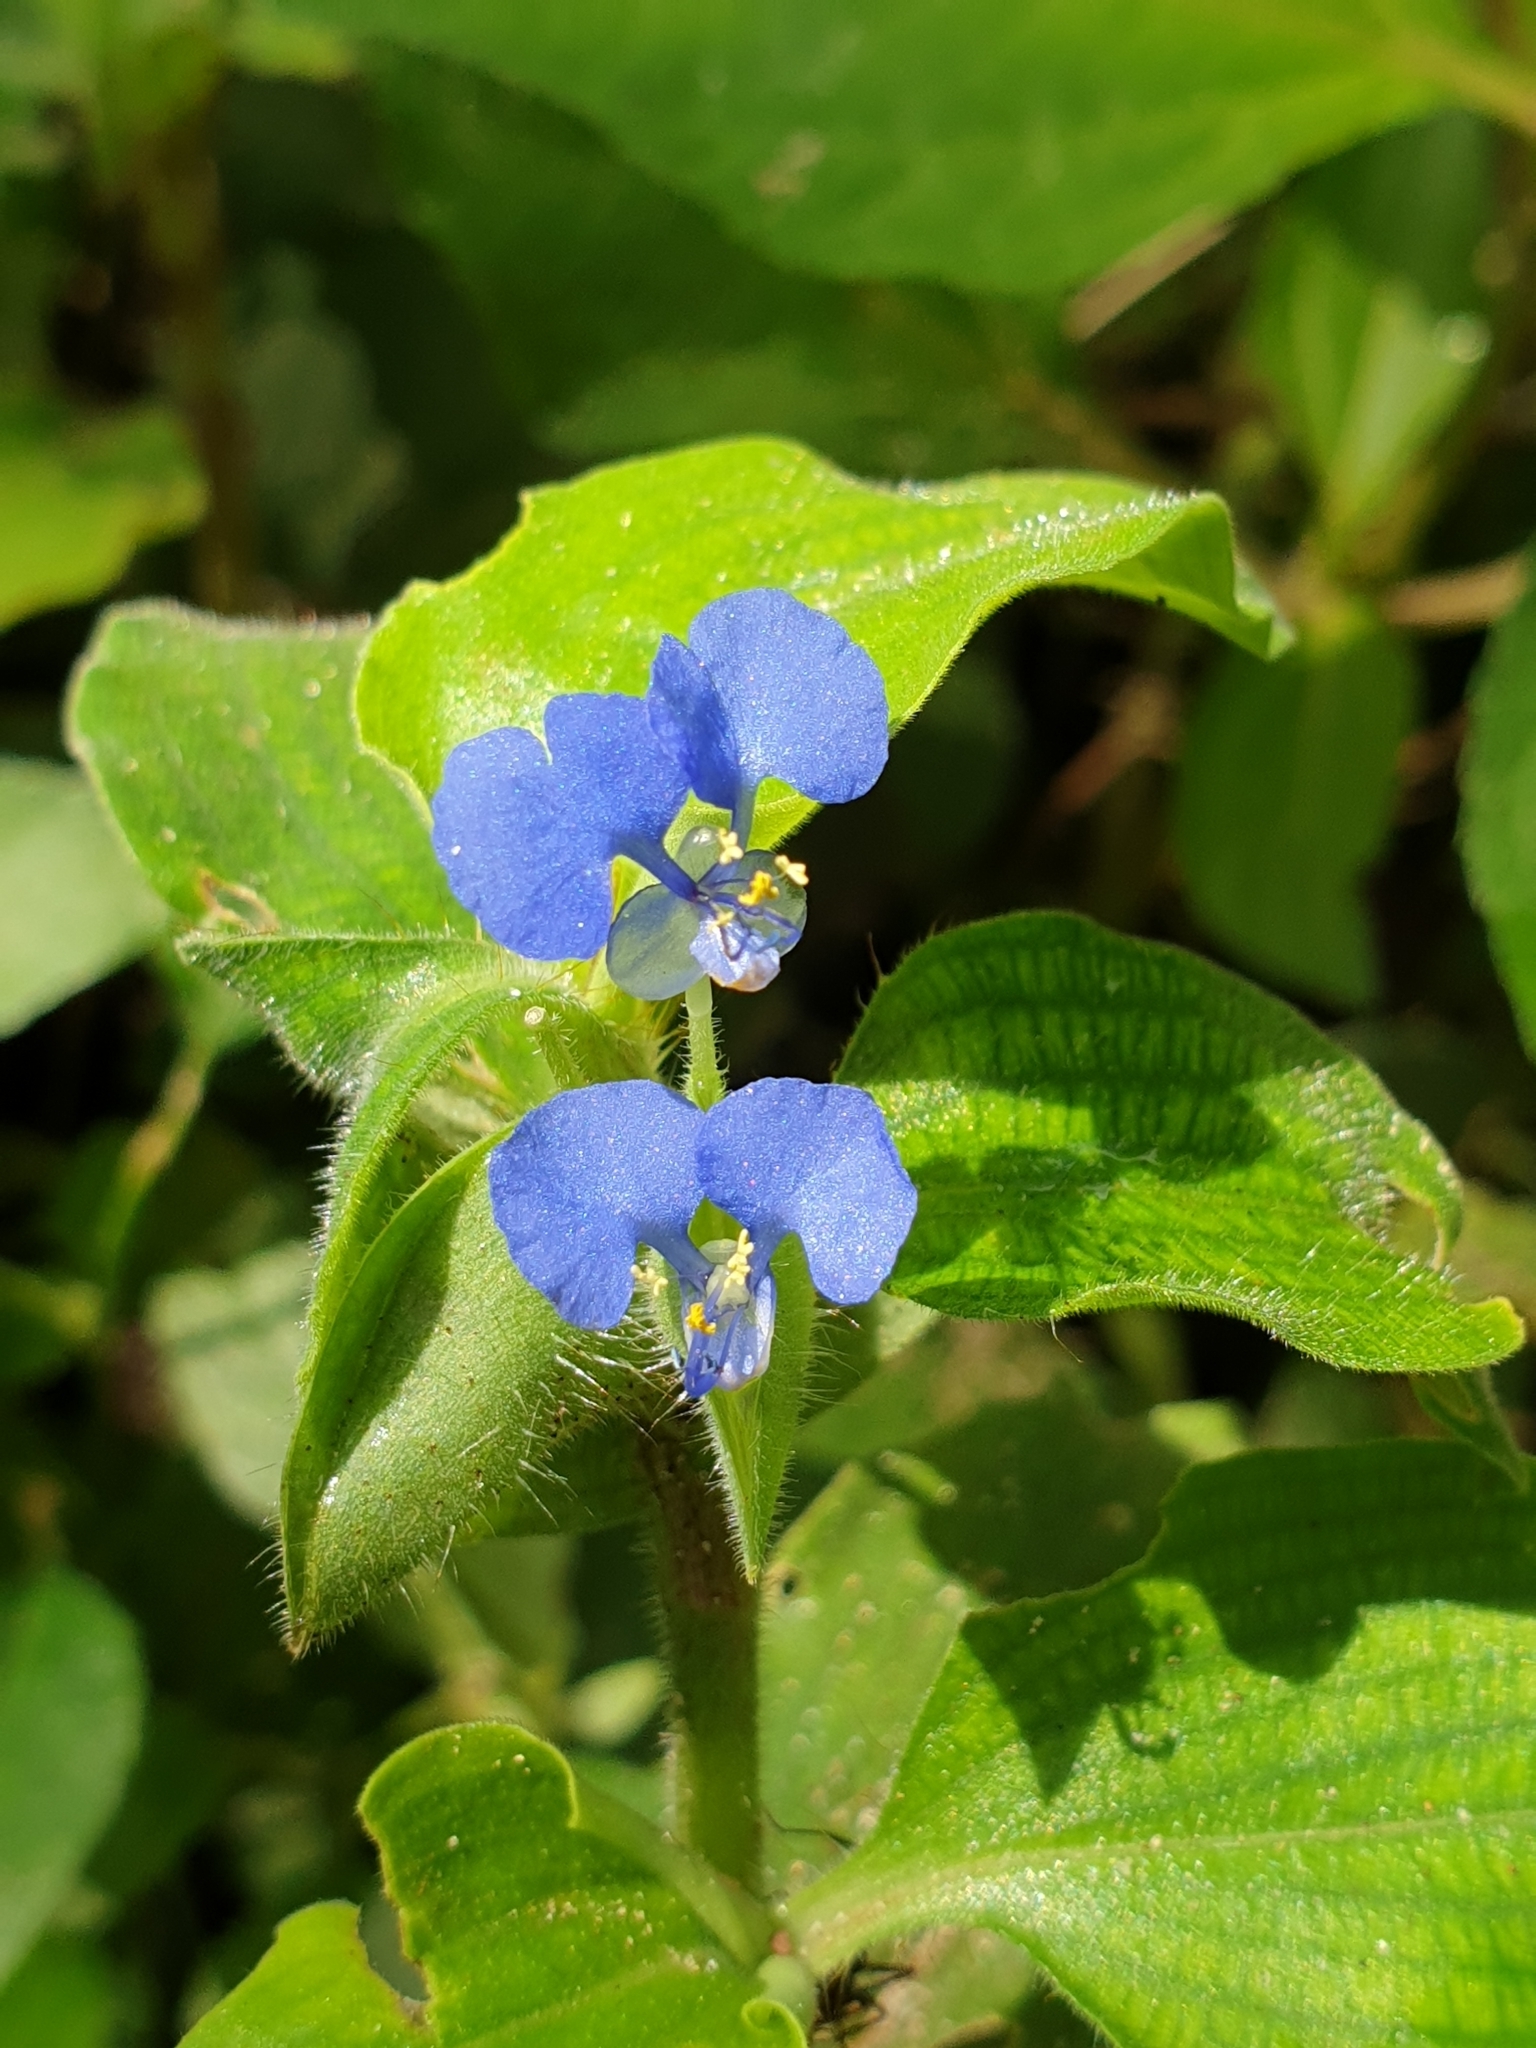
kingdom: Plantae
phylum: Tracheophyta
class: Liliopsida
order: Commelinales
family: Commelinaceae
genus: Commelina
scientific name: Commelina benghalensis
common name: Jio
